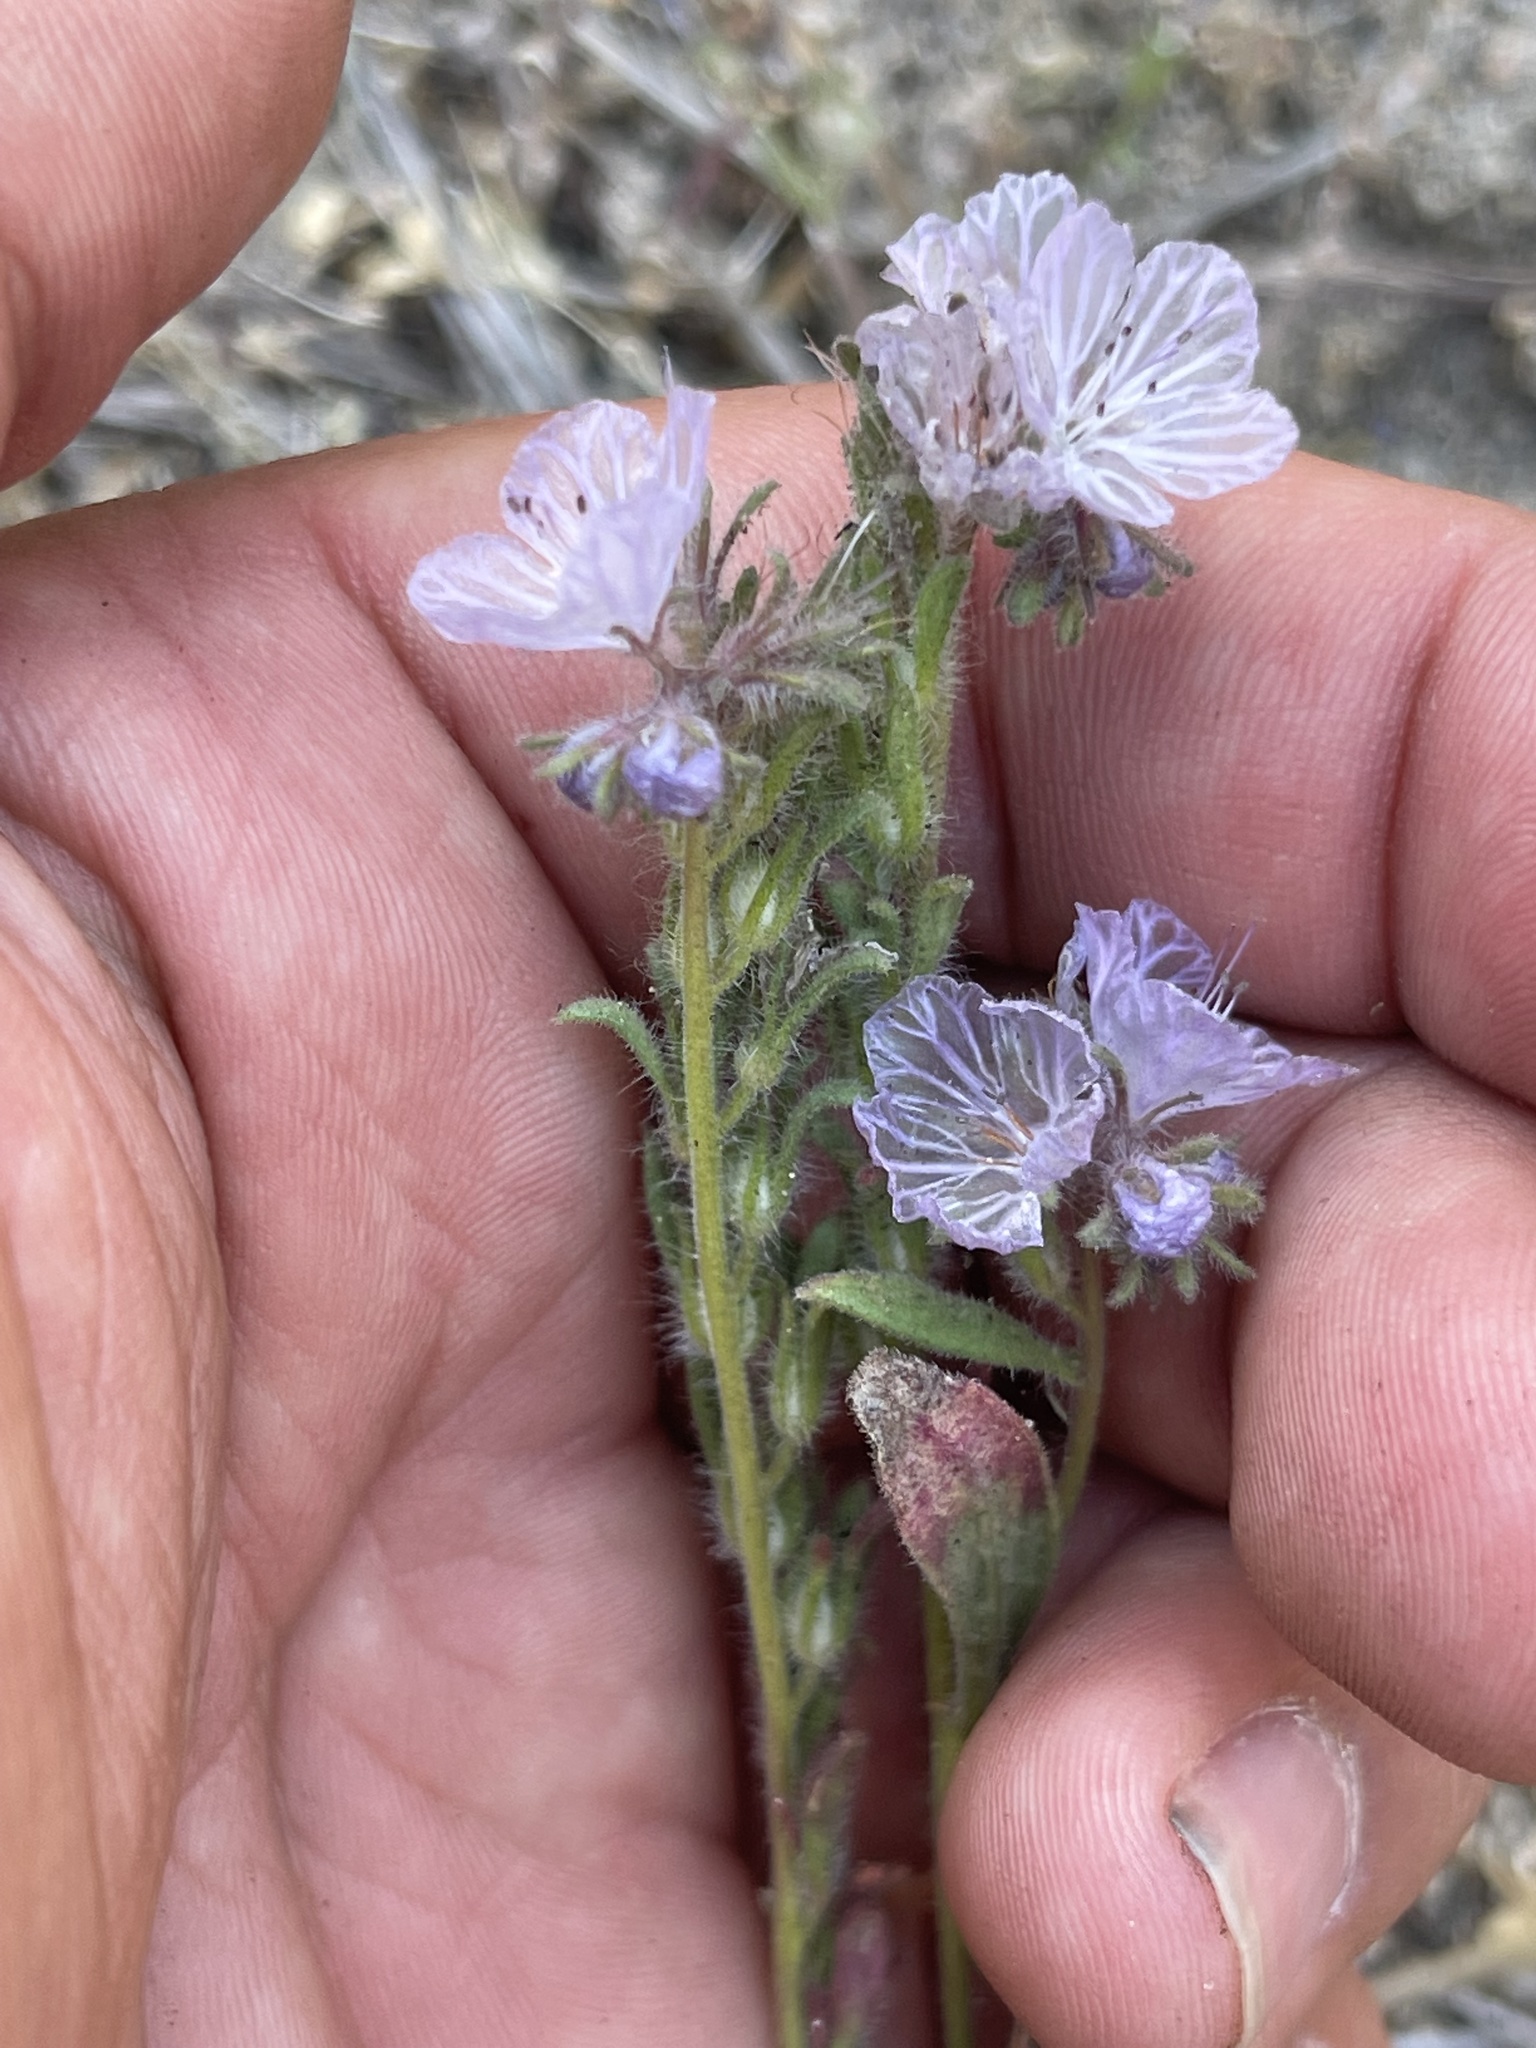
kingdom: Plantae
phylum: Tracheophyta
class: Magnoliopsida
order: Boraginales
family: Hydrophyllaceae
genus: Phacelia
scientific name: Phacelia exilis
